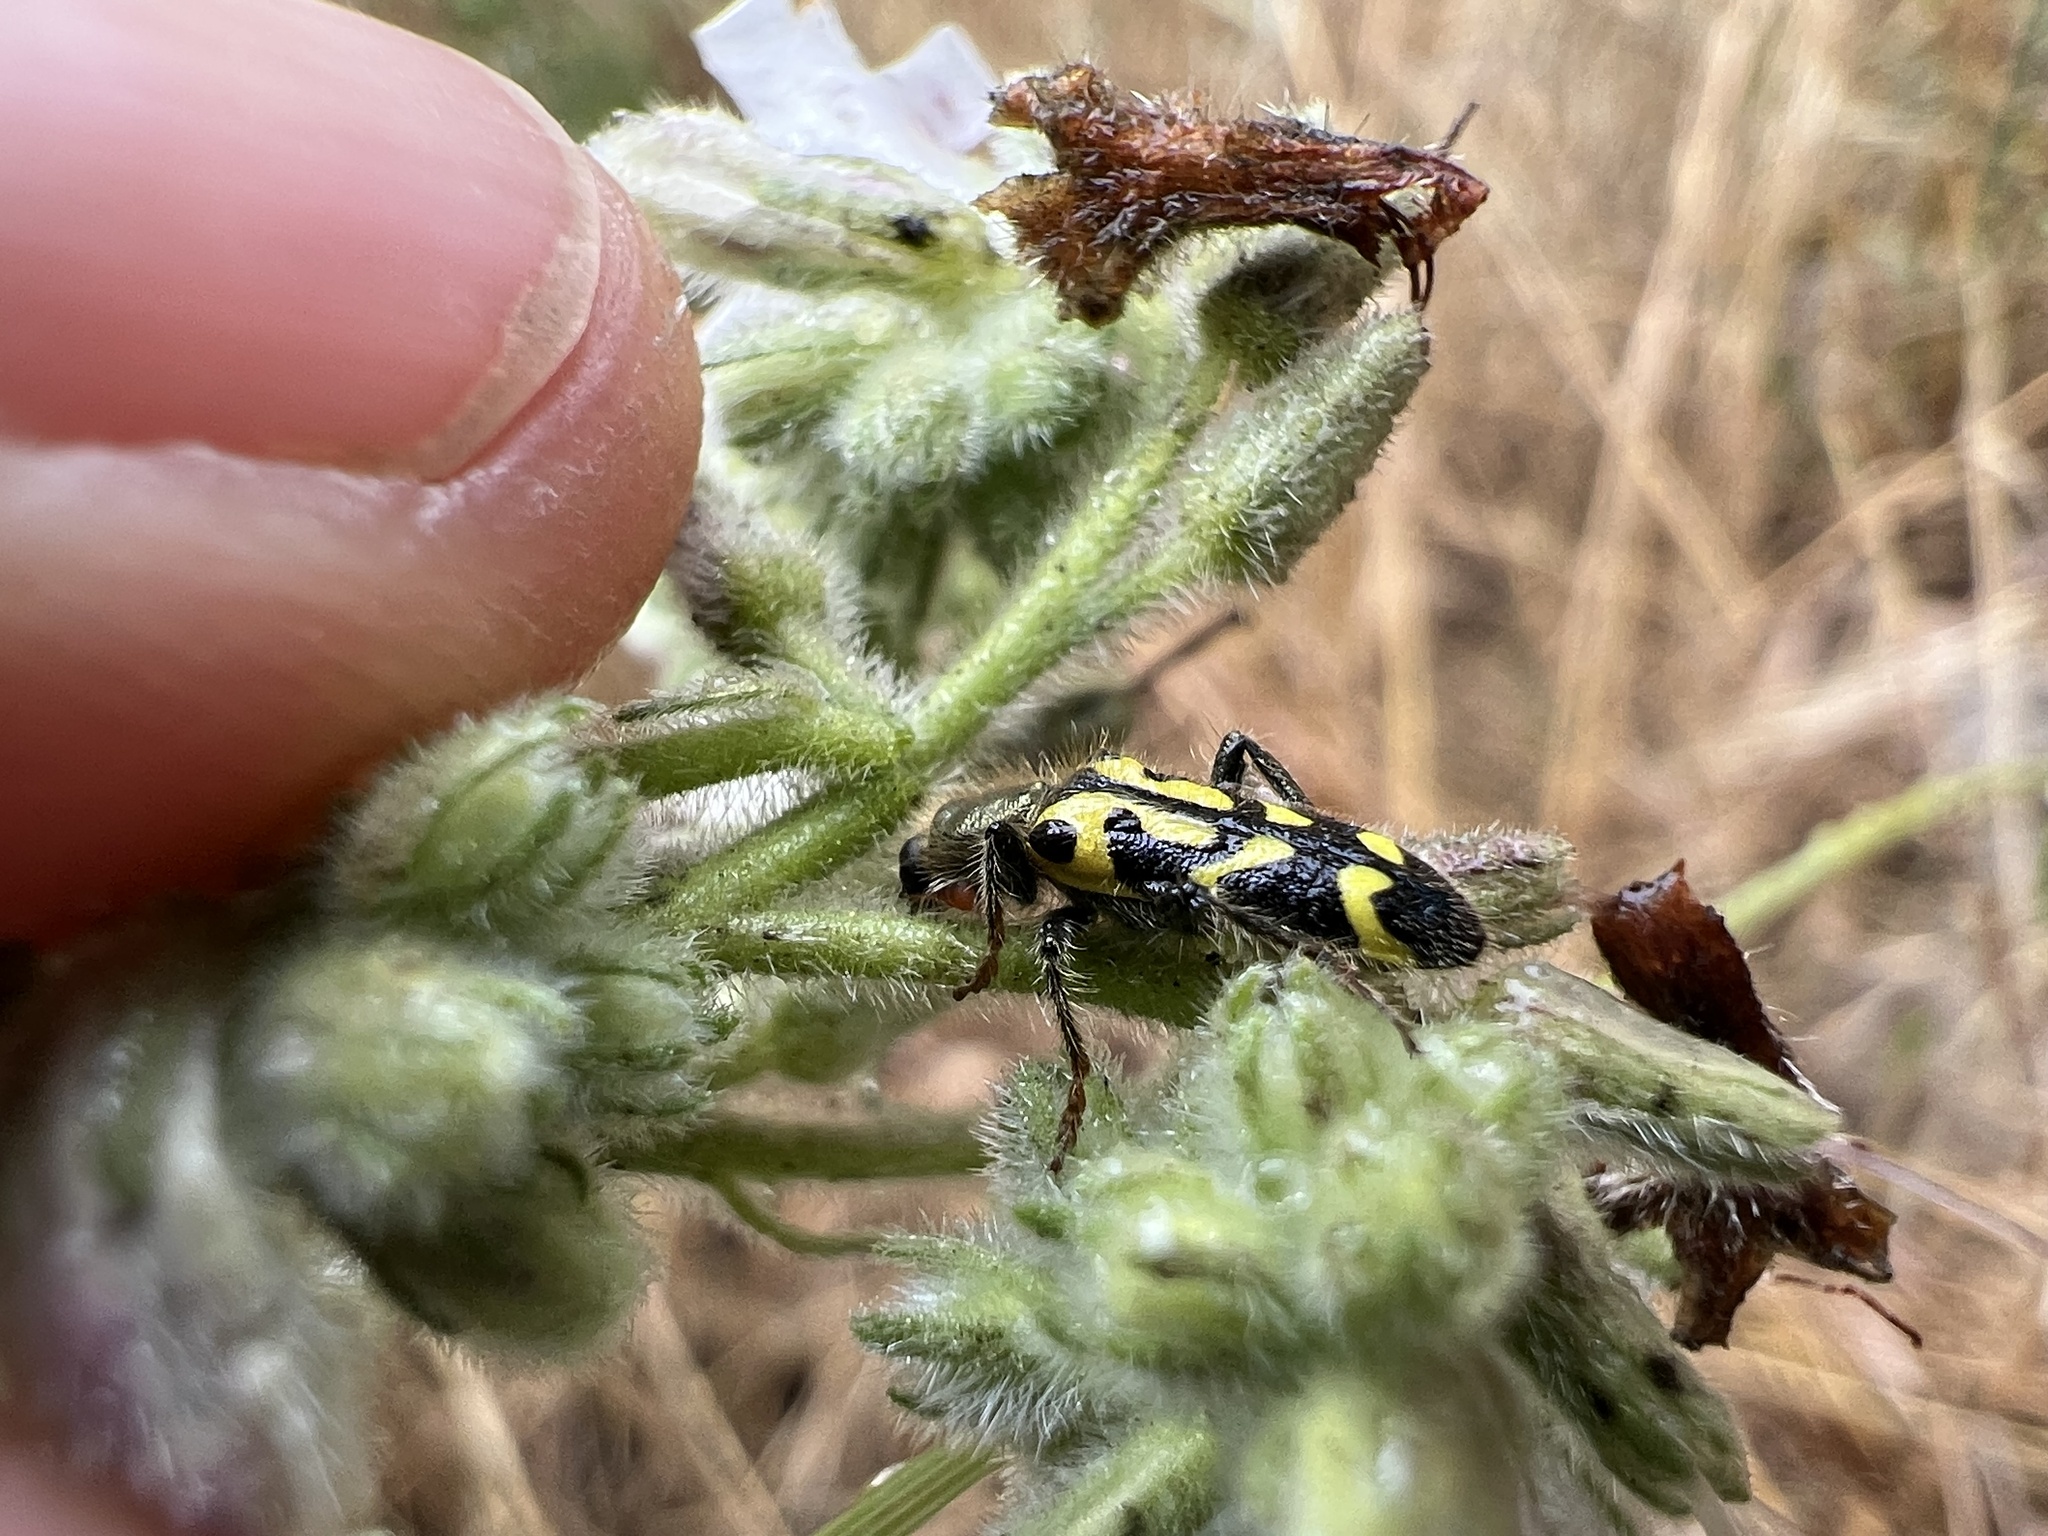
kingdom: Animalia
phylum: Arthropoda
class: Insecta
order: Coleoptera
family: Cleridae
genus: Trichodes
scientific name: Trichodes ornatus
